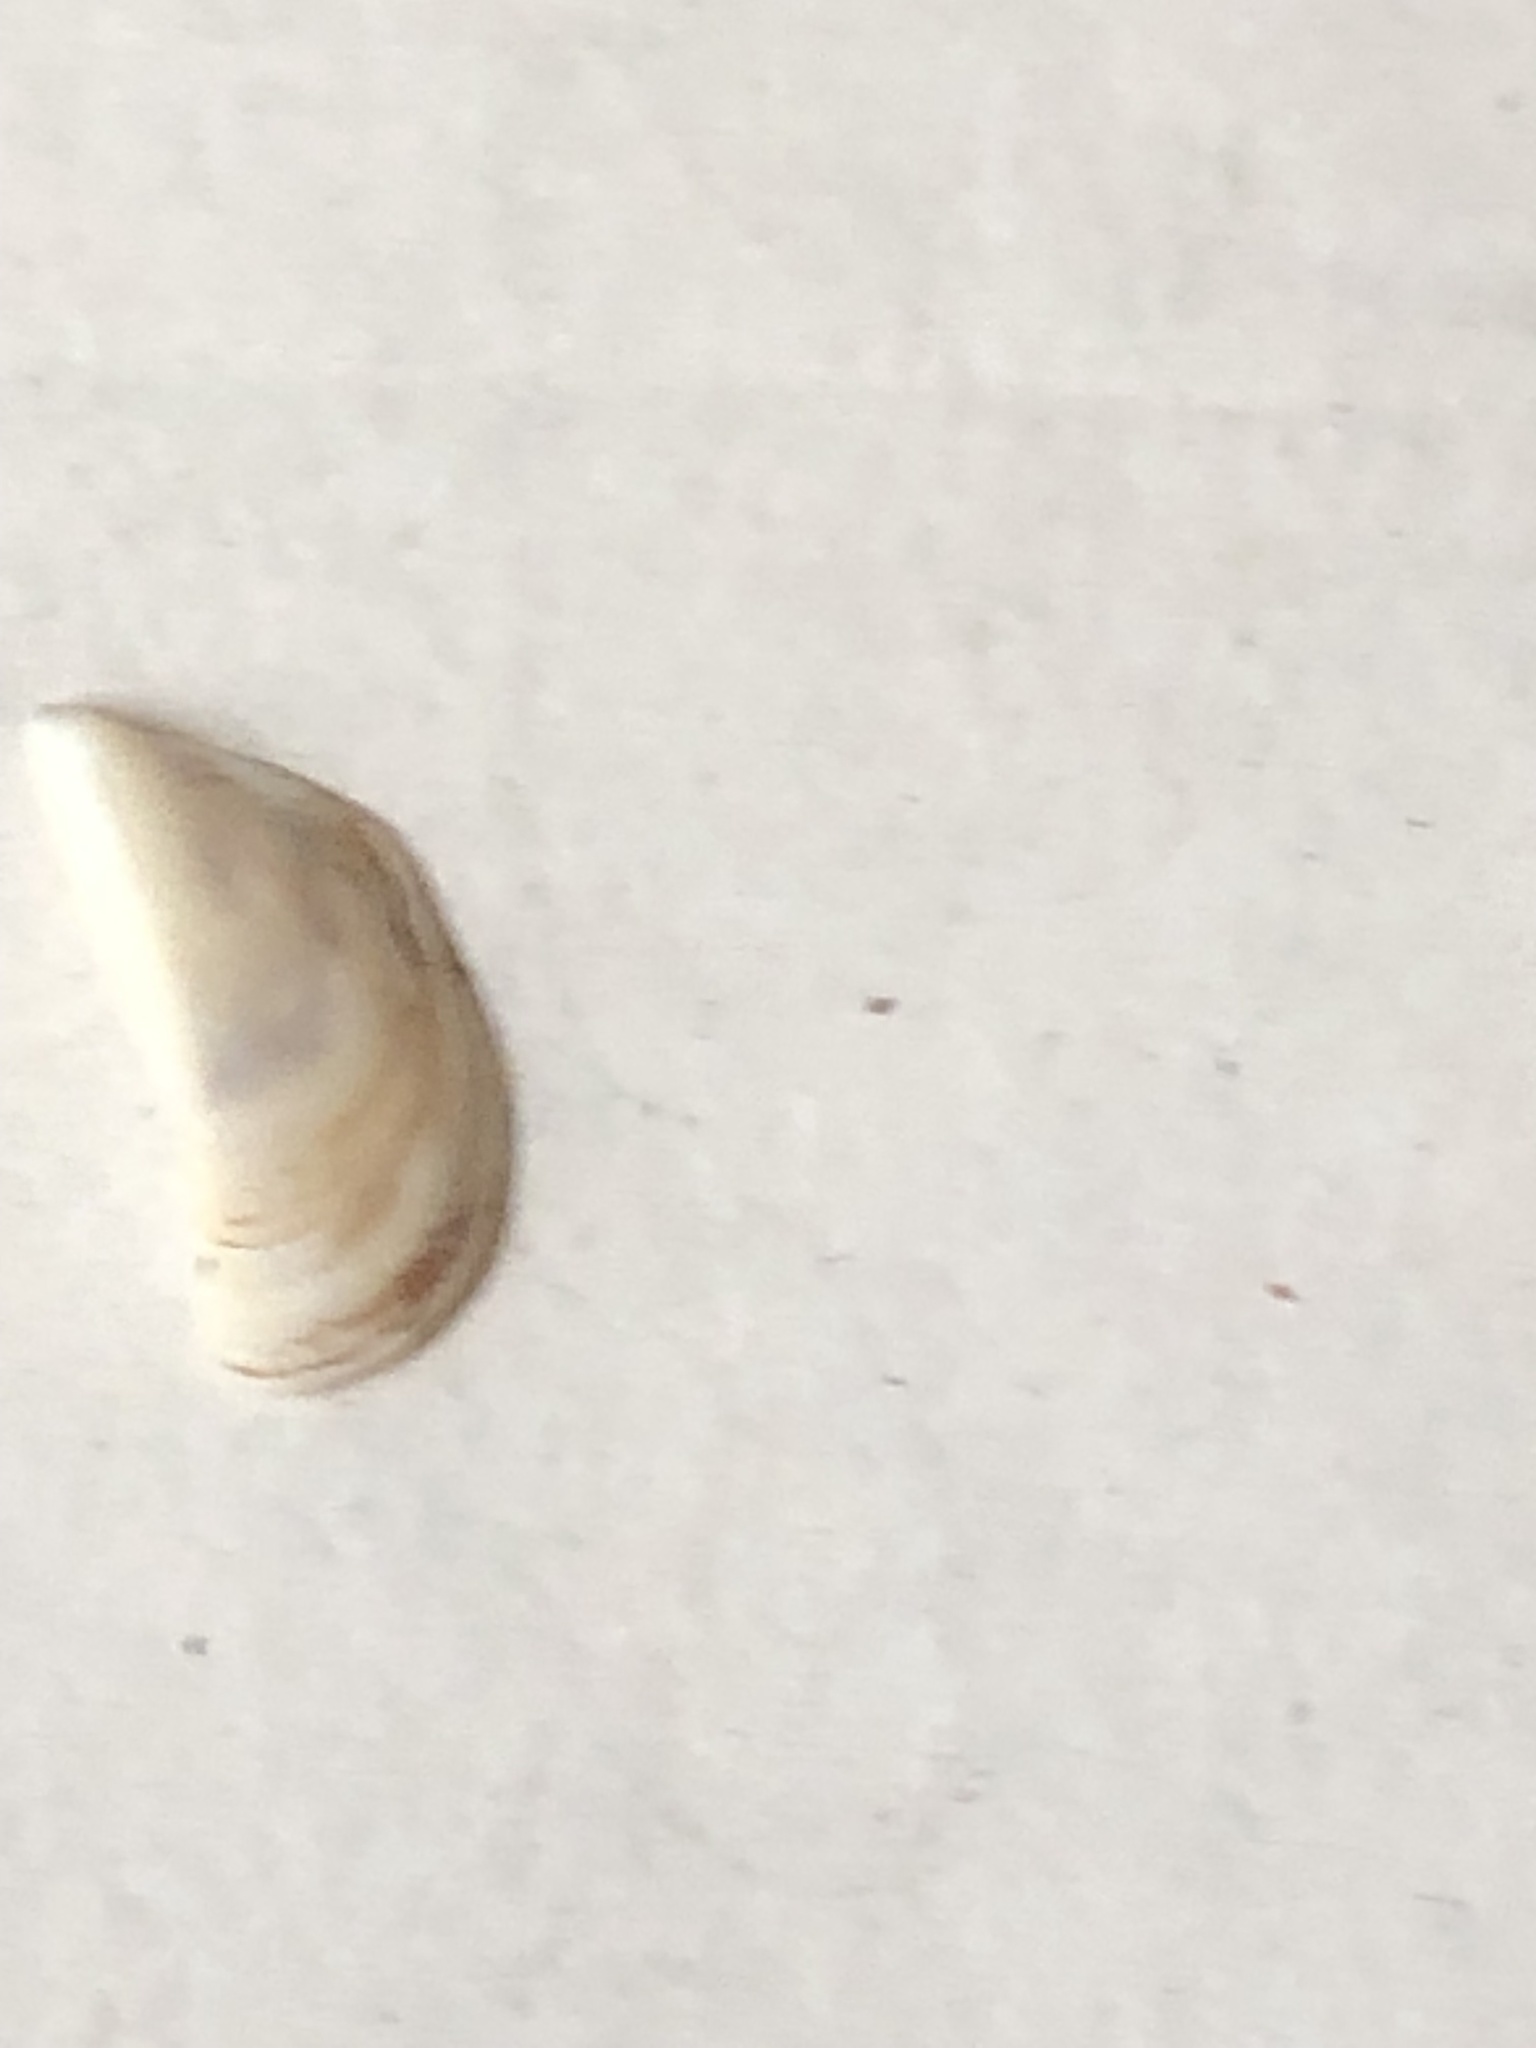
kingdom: Animalia
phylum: Mollusca
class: Bivalvia
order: Myida
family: Dreissenidae
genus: Dreissena
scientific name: Dreissena polymorpha
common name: Zebra mussel
